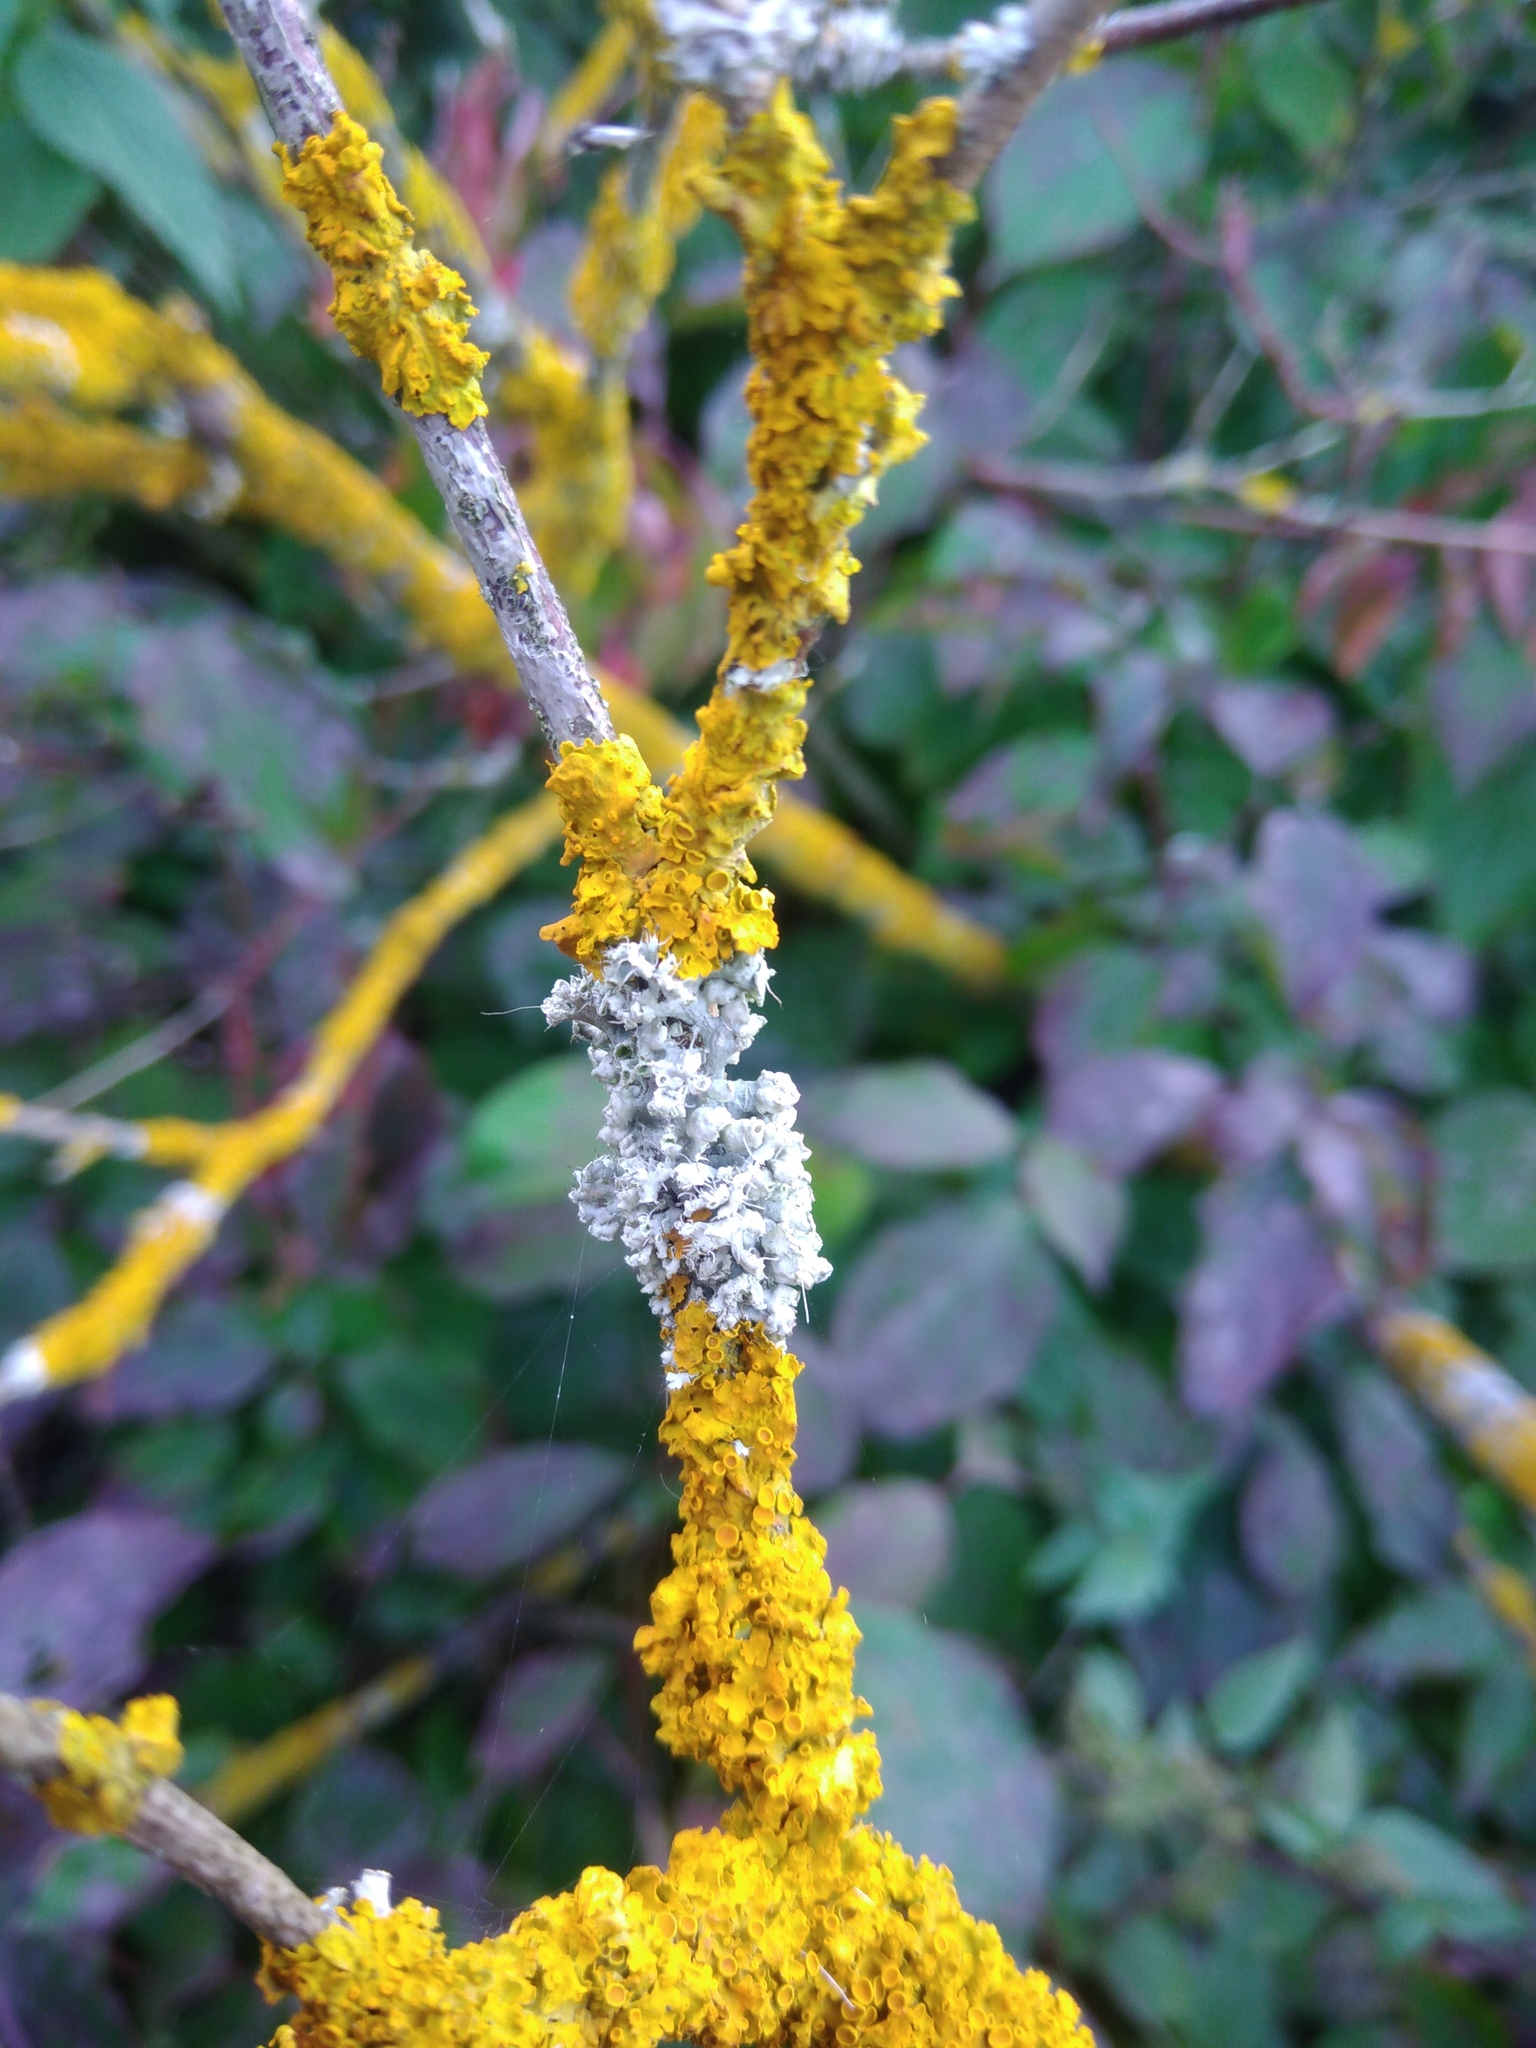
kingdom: Fungi
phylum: Ascomycota
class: Lecanoromycetes
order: Caliciales
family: Physciaceae
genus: Physcia
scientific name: Physcia adscendens
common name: Hooded rosette lichen
